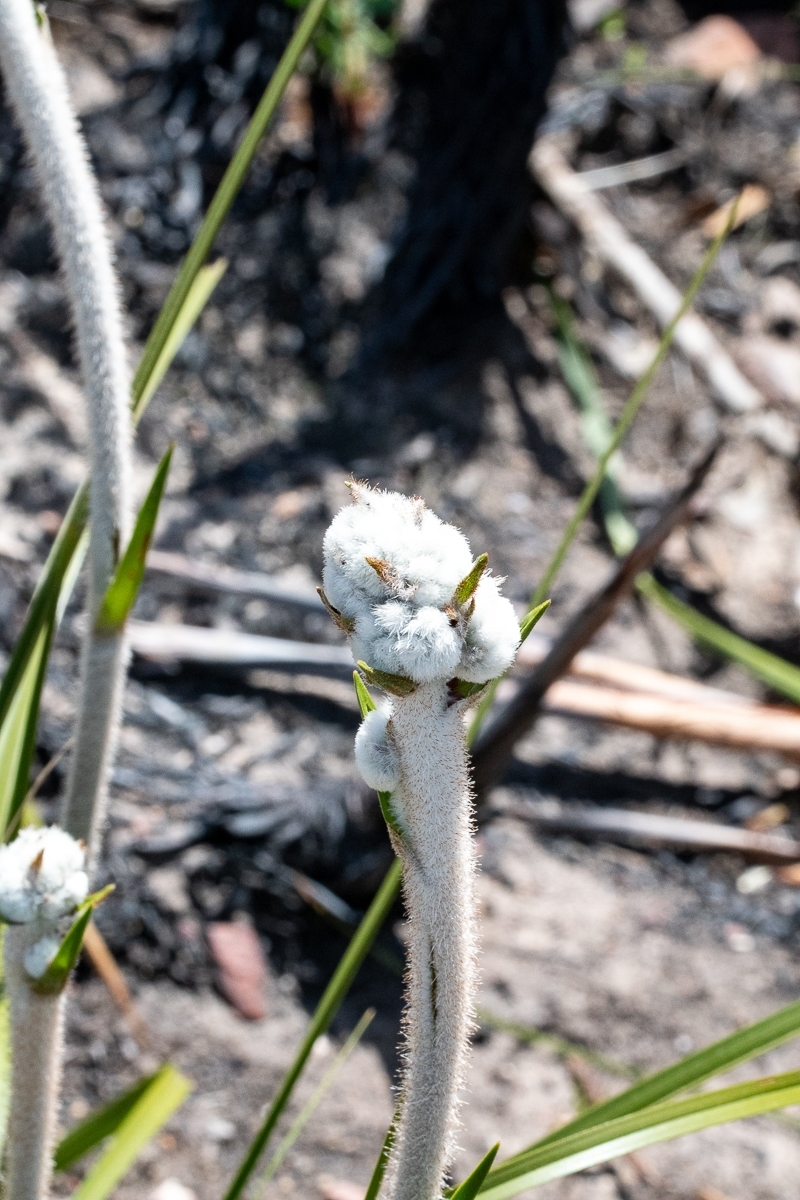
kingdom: Plantae
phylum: Tracheophyta
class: Liliopsida
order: Asparagales
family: Lanariaceae
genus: Lanaria
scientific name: Lanaria lanata
